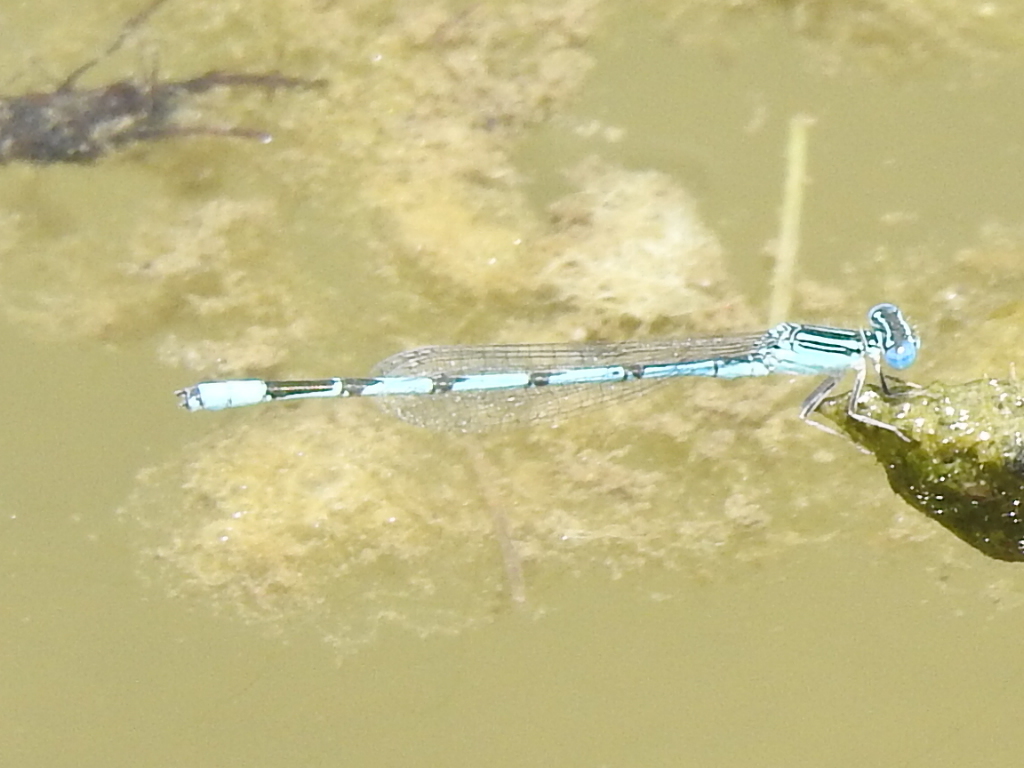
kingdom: Animalia
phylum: Arthropoda
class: Insecta
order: Odonata
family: Coenagrionidae
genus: Enallagma
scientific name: Enallagma basidens
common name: Double-striped bluet
